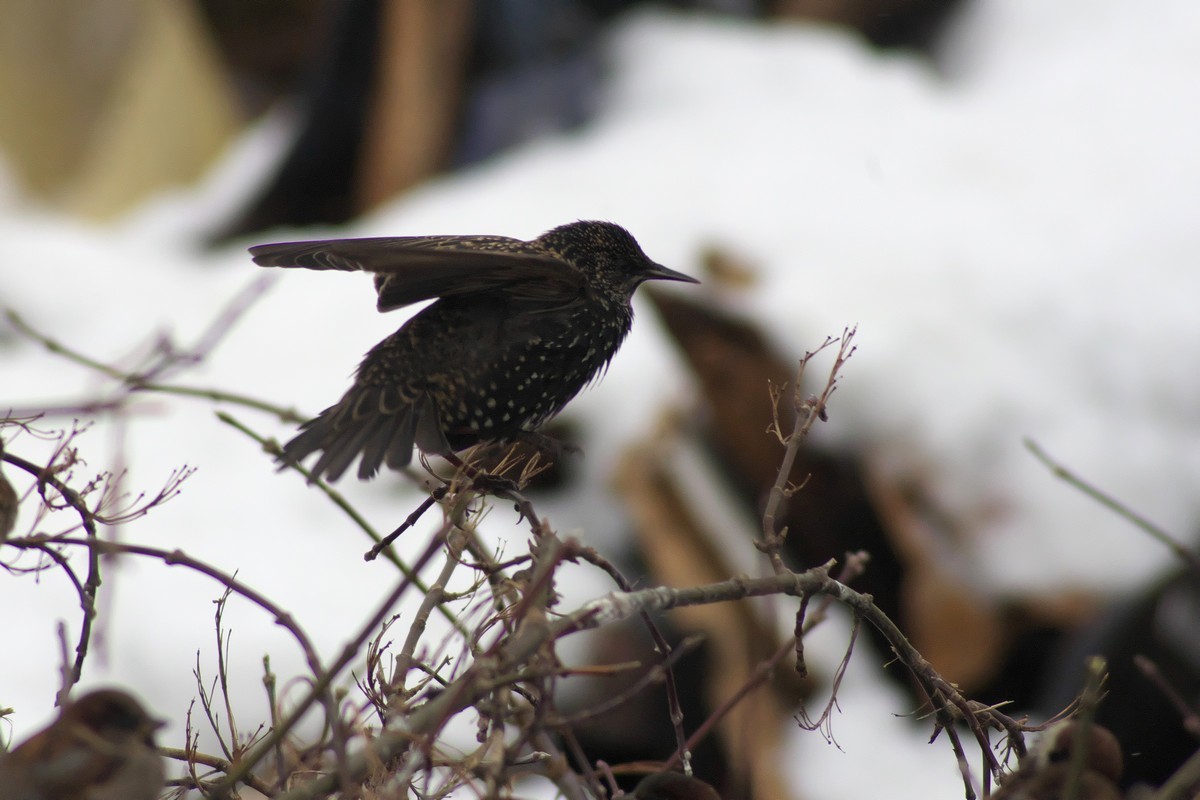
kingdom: Animalia
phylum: Chordata
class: Aves
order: Passeriformes
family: Sturnidae
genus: Sturnus
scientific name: Sturnus vulgaris
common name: Common starling
